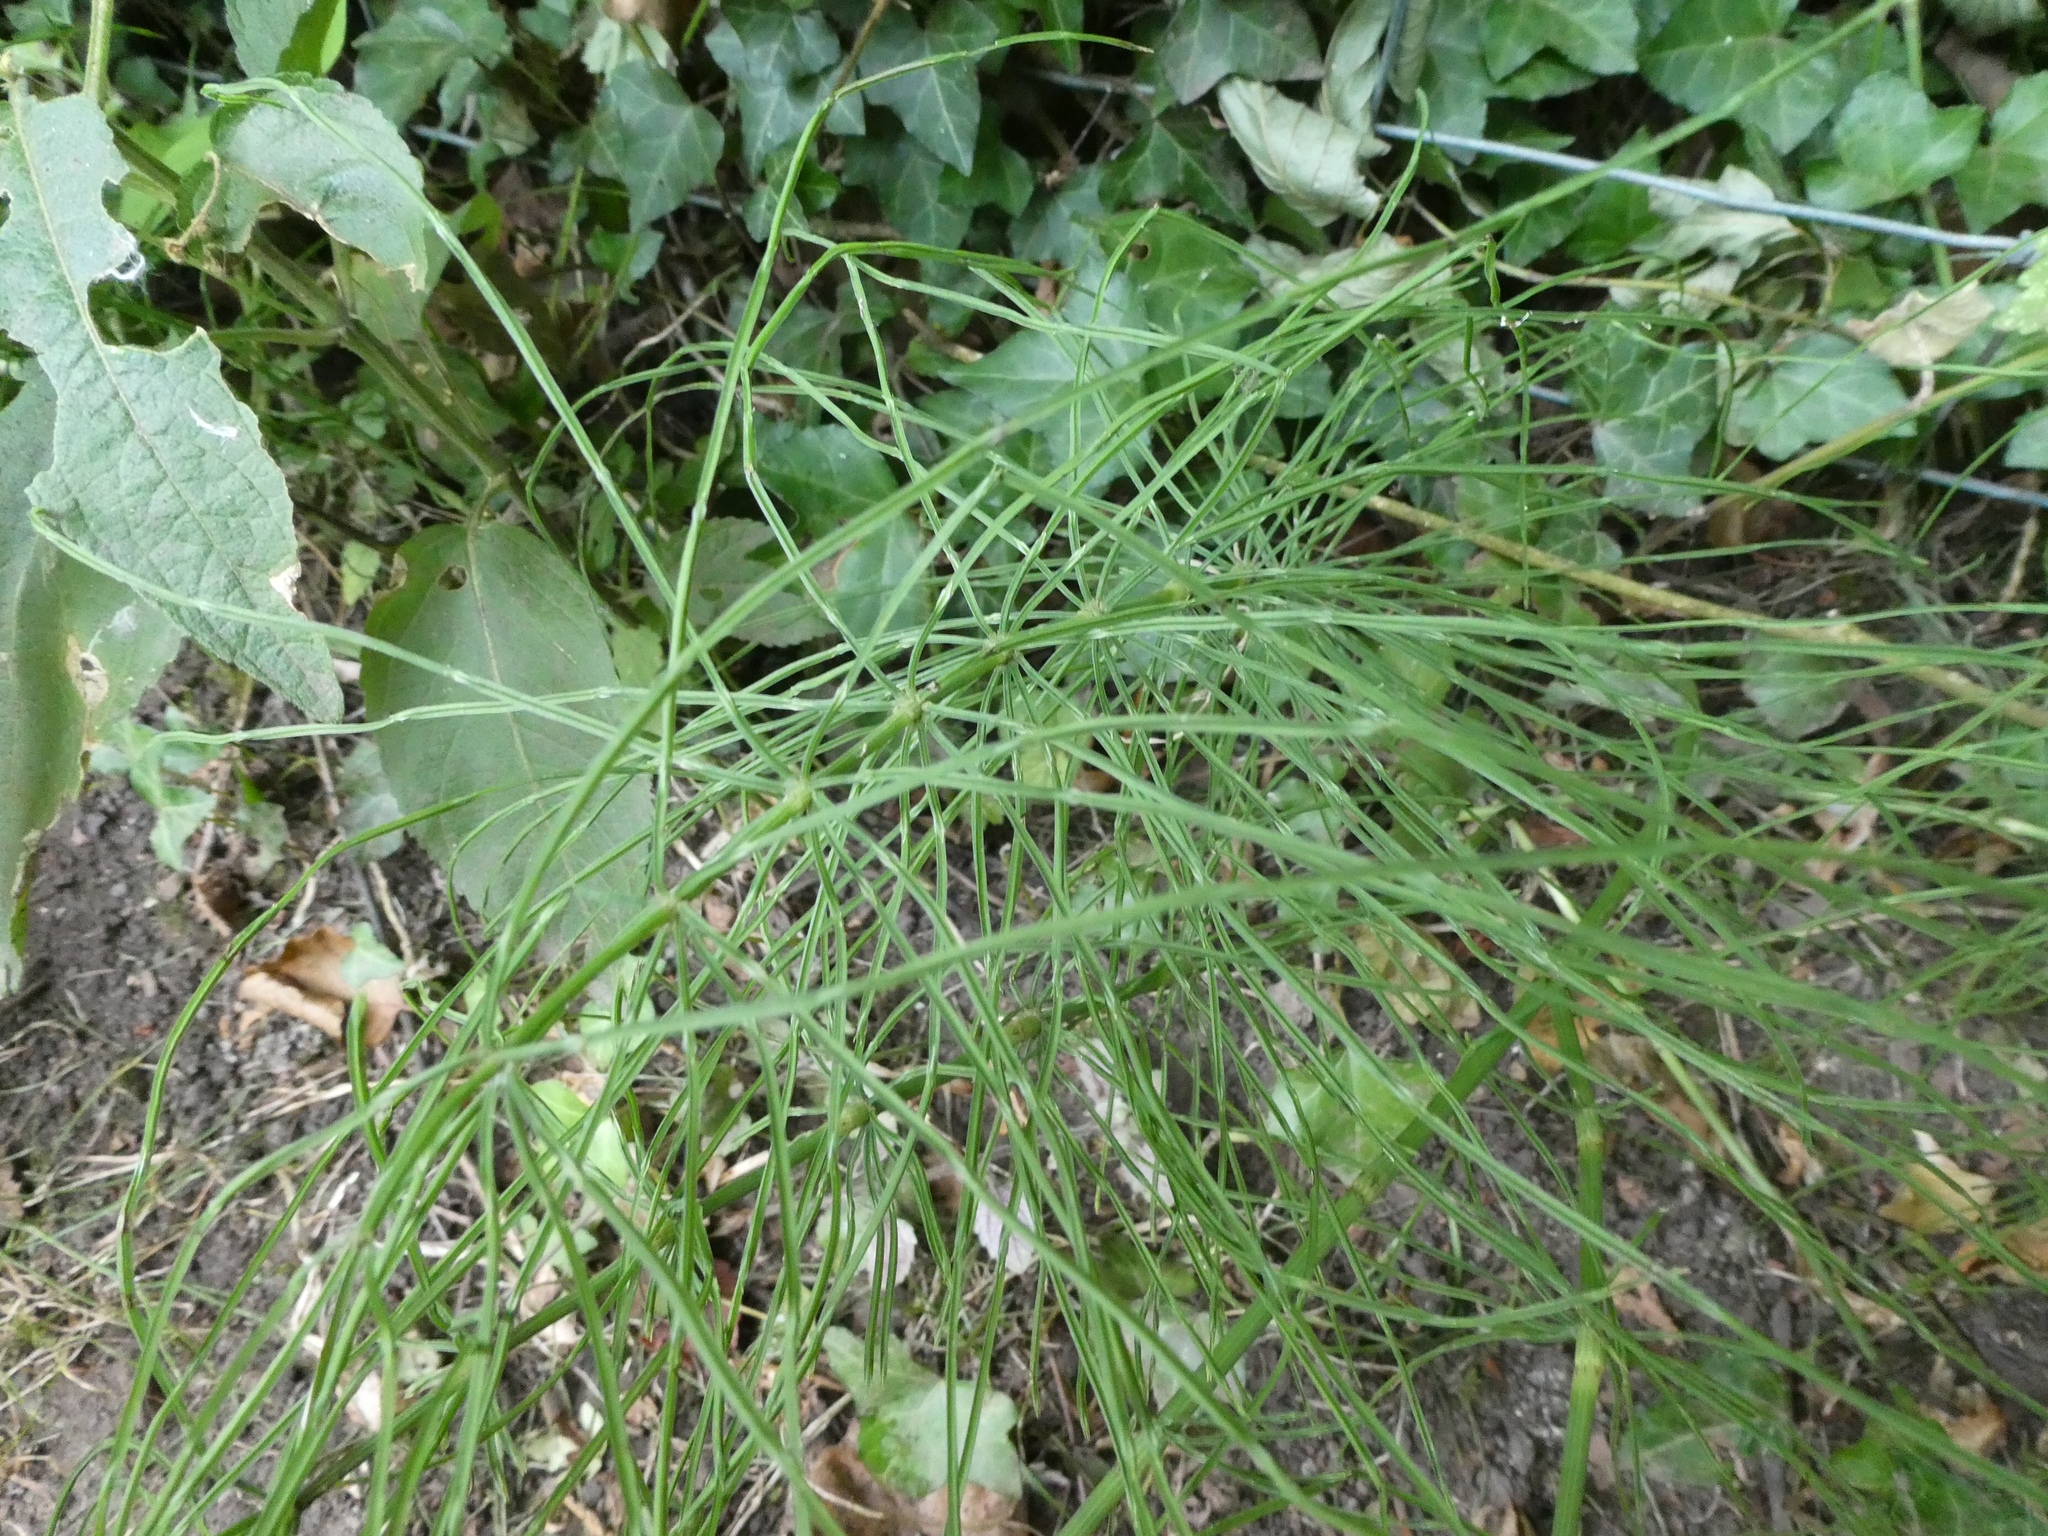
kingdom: Plantae
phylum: Tracheophyta
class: Polypodiopsida
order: Equisetales
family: Equisetaceae
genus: Equisetum
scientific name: Equisetum arvense
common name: Field horsetail
